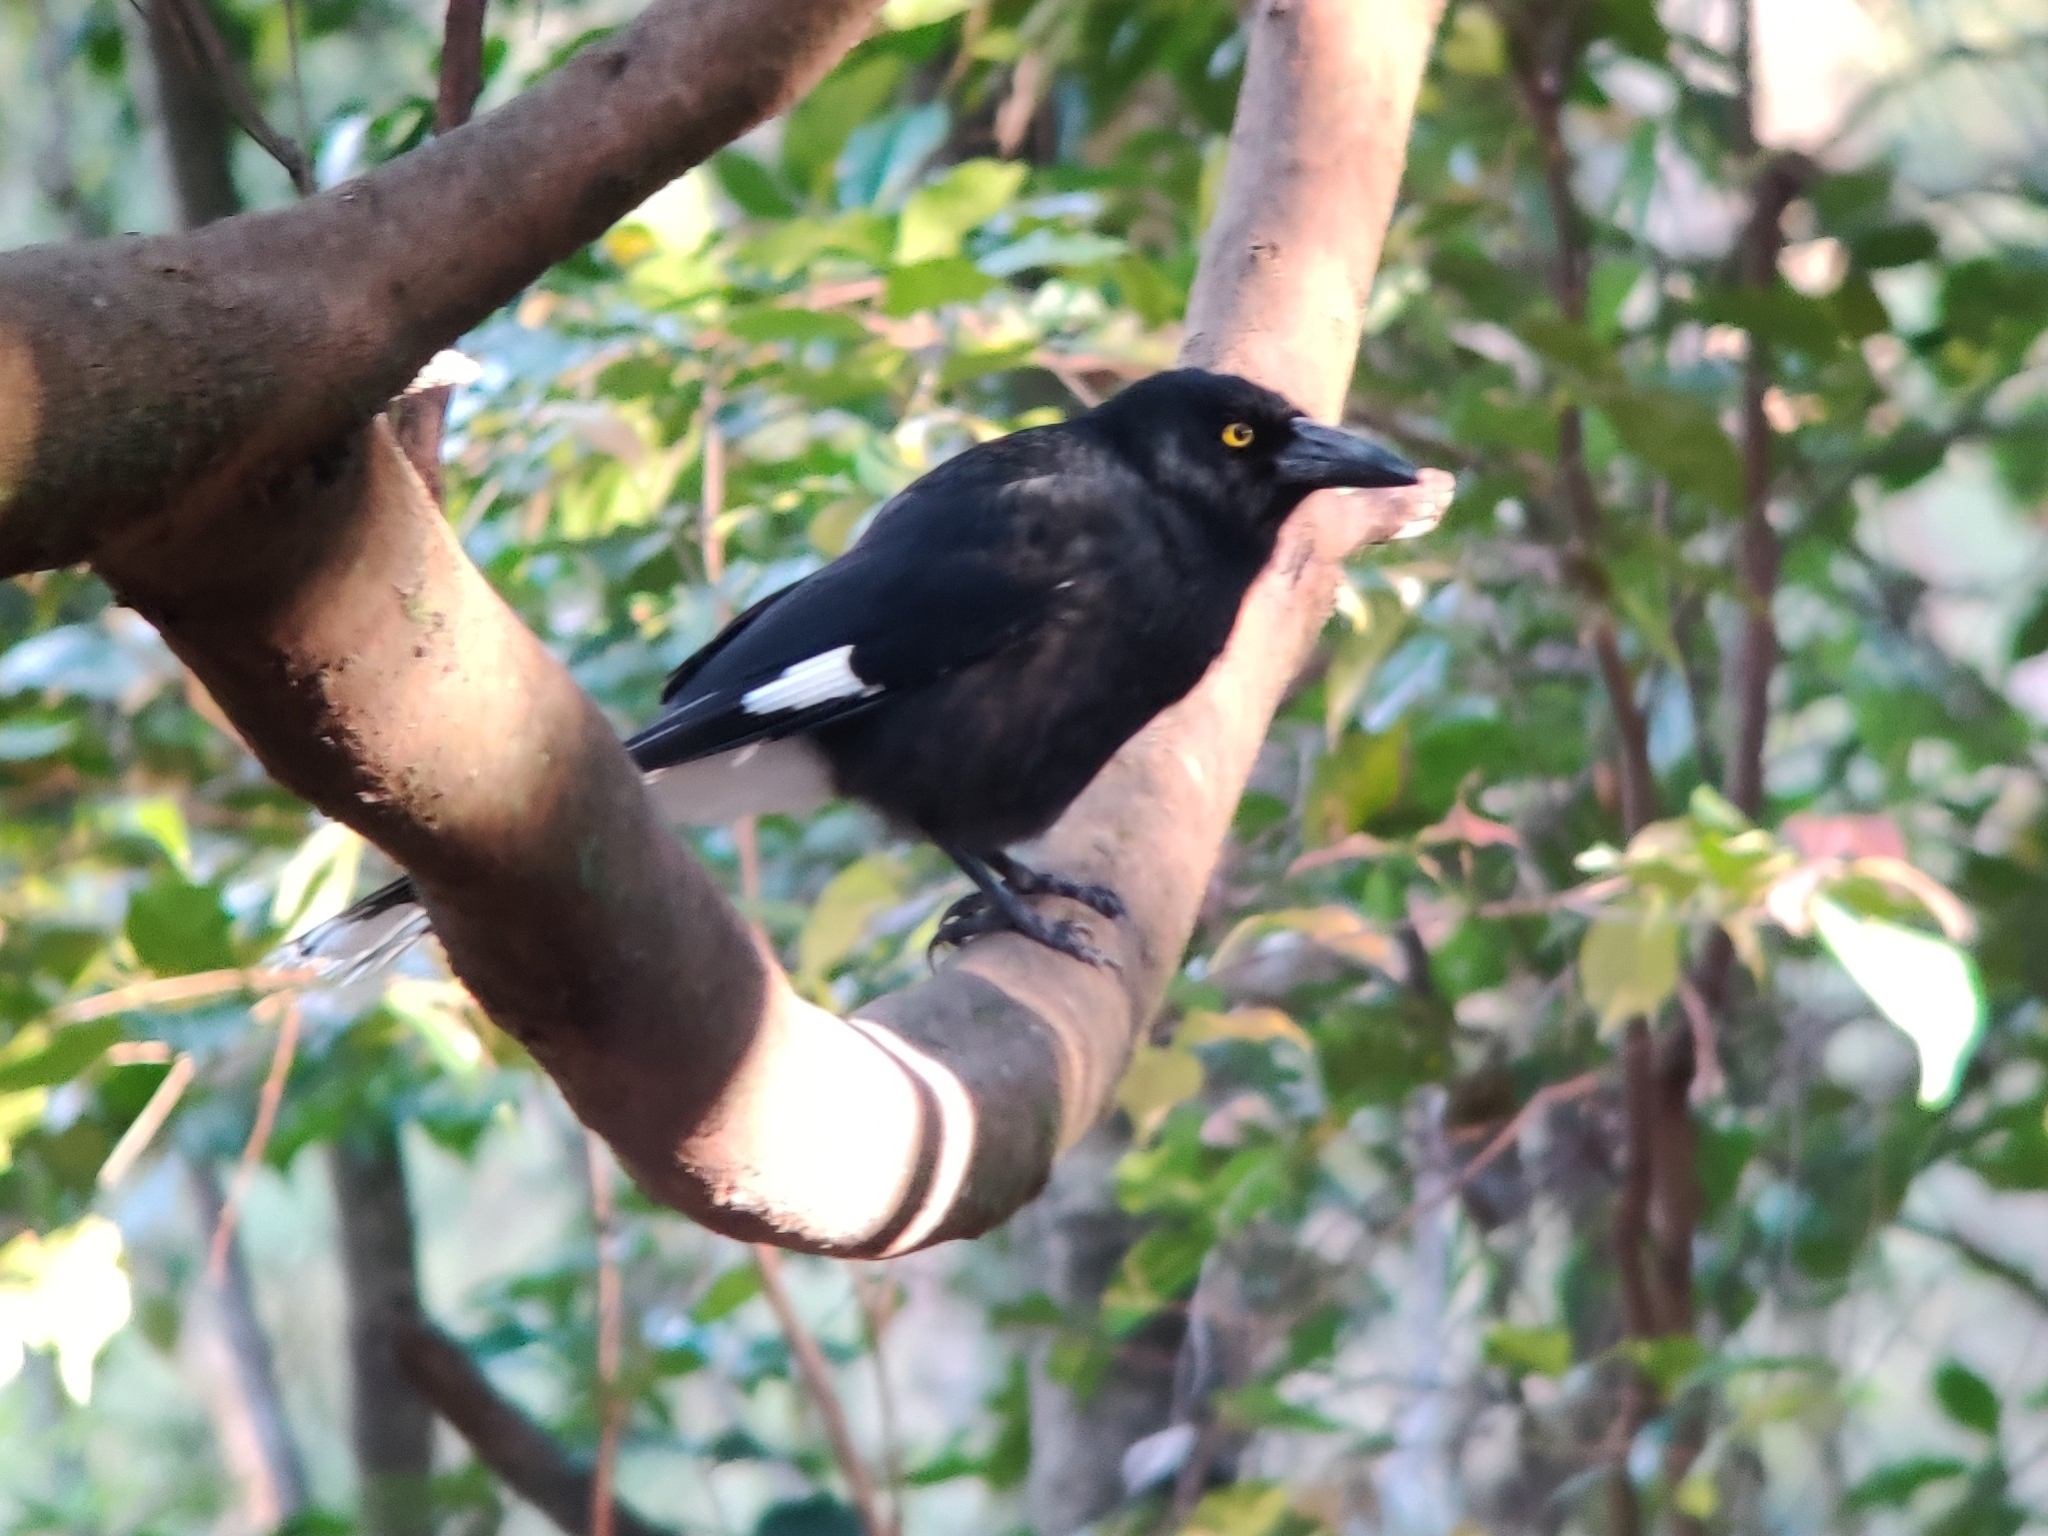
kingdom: Animalia
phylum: Chordata
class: Aves
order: Passeriformes
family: Cracticidae
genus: Strepera
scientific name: Strepera graculina
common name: Pied currawong
